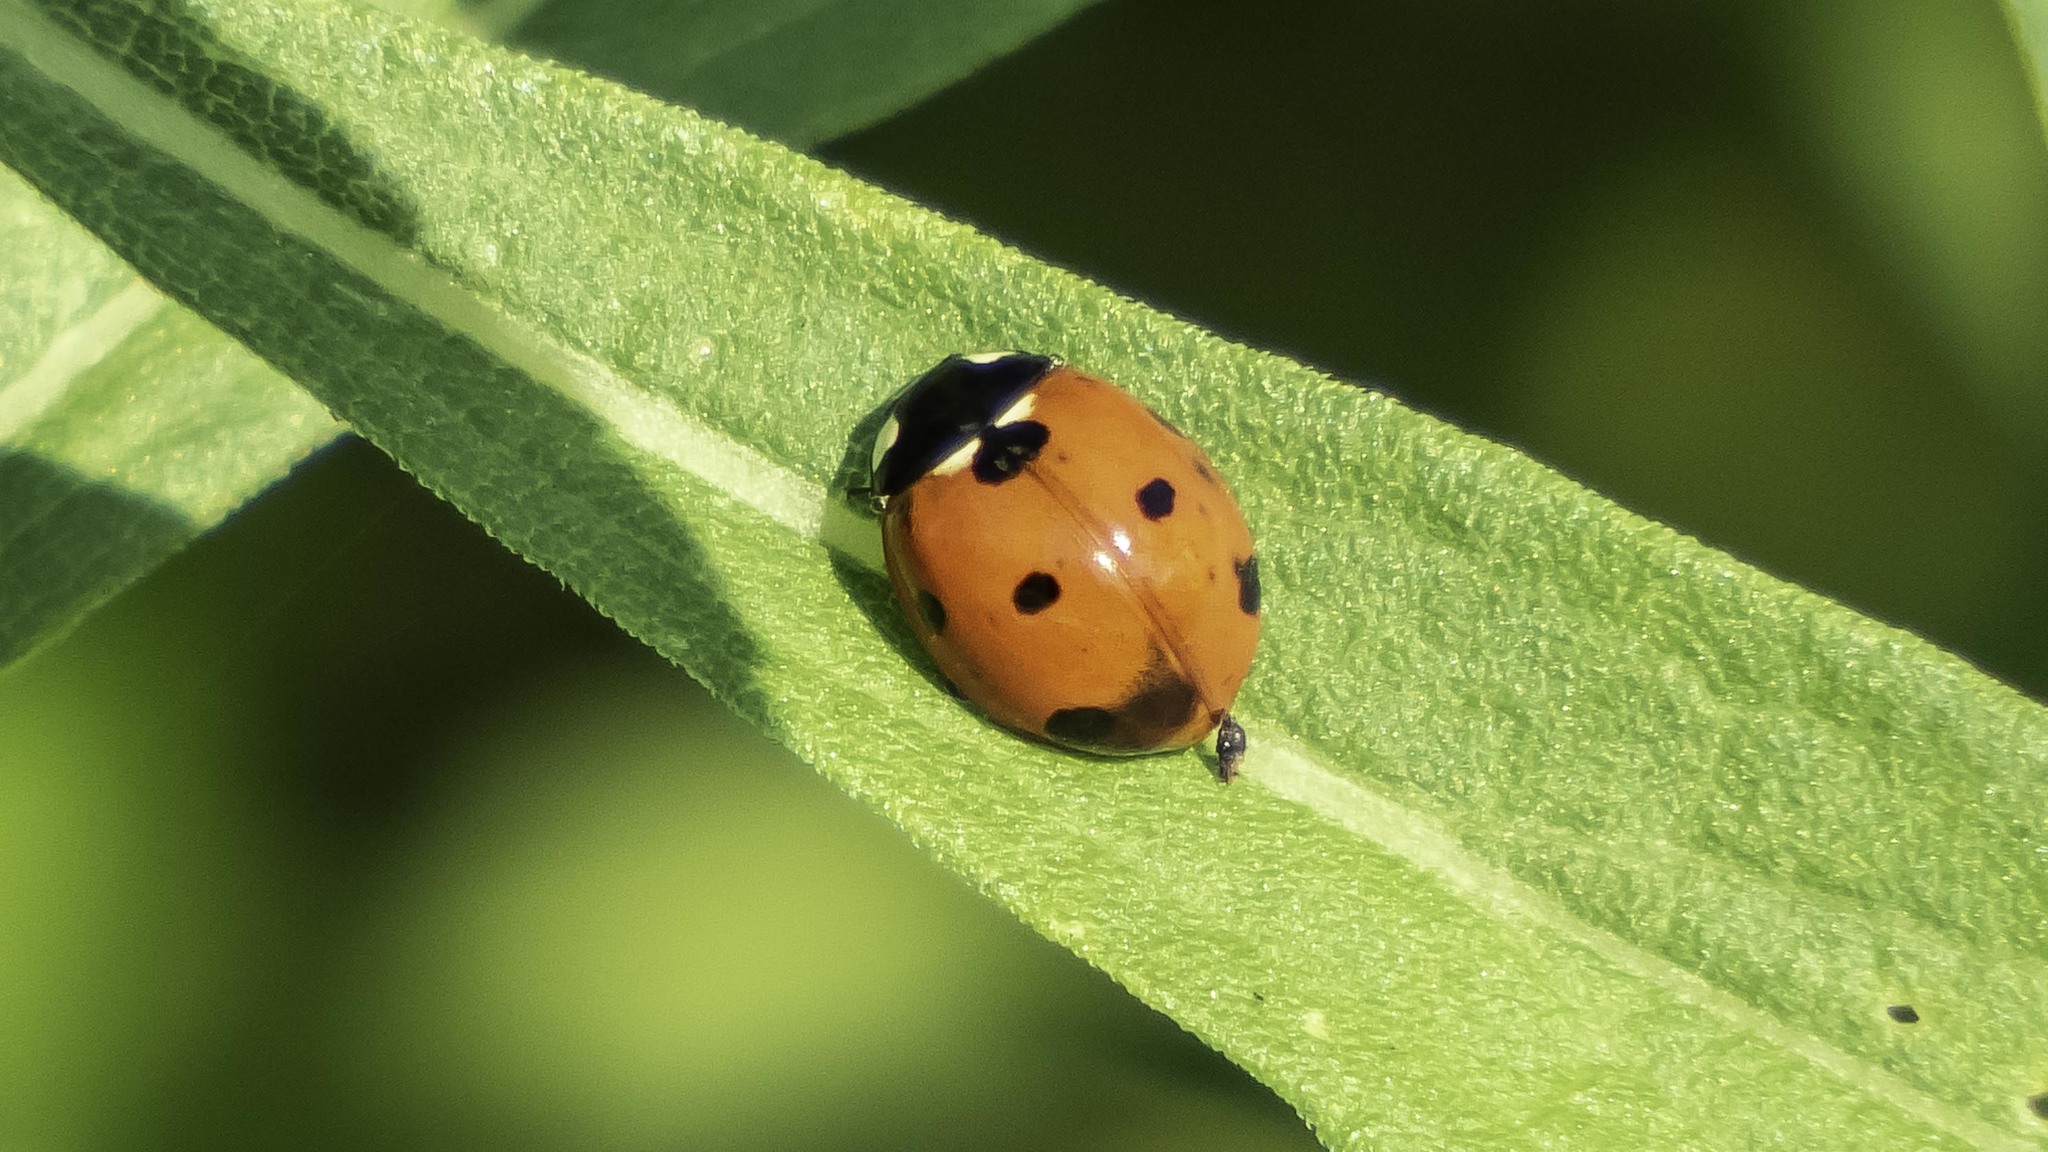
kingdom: Animalia
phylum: Arthropoda
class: Insecta
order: Coleoptera
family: Coccinellidae
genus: Coccinella
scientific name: Coccinella septempunctata
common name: Sevenspotted lady beetle
